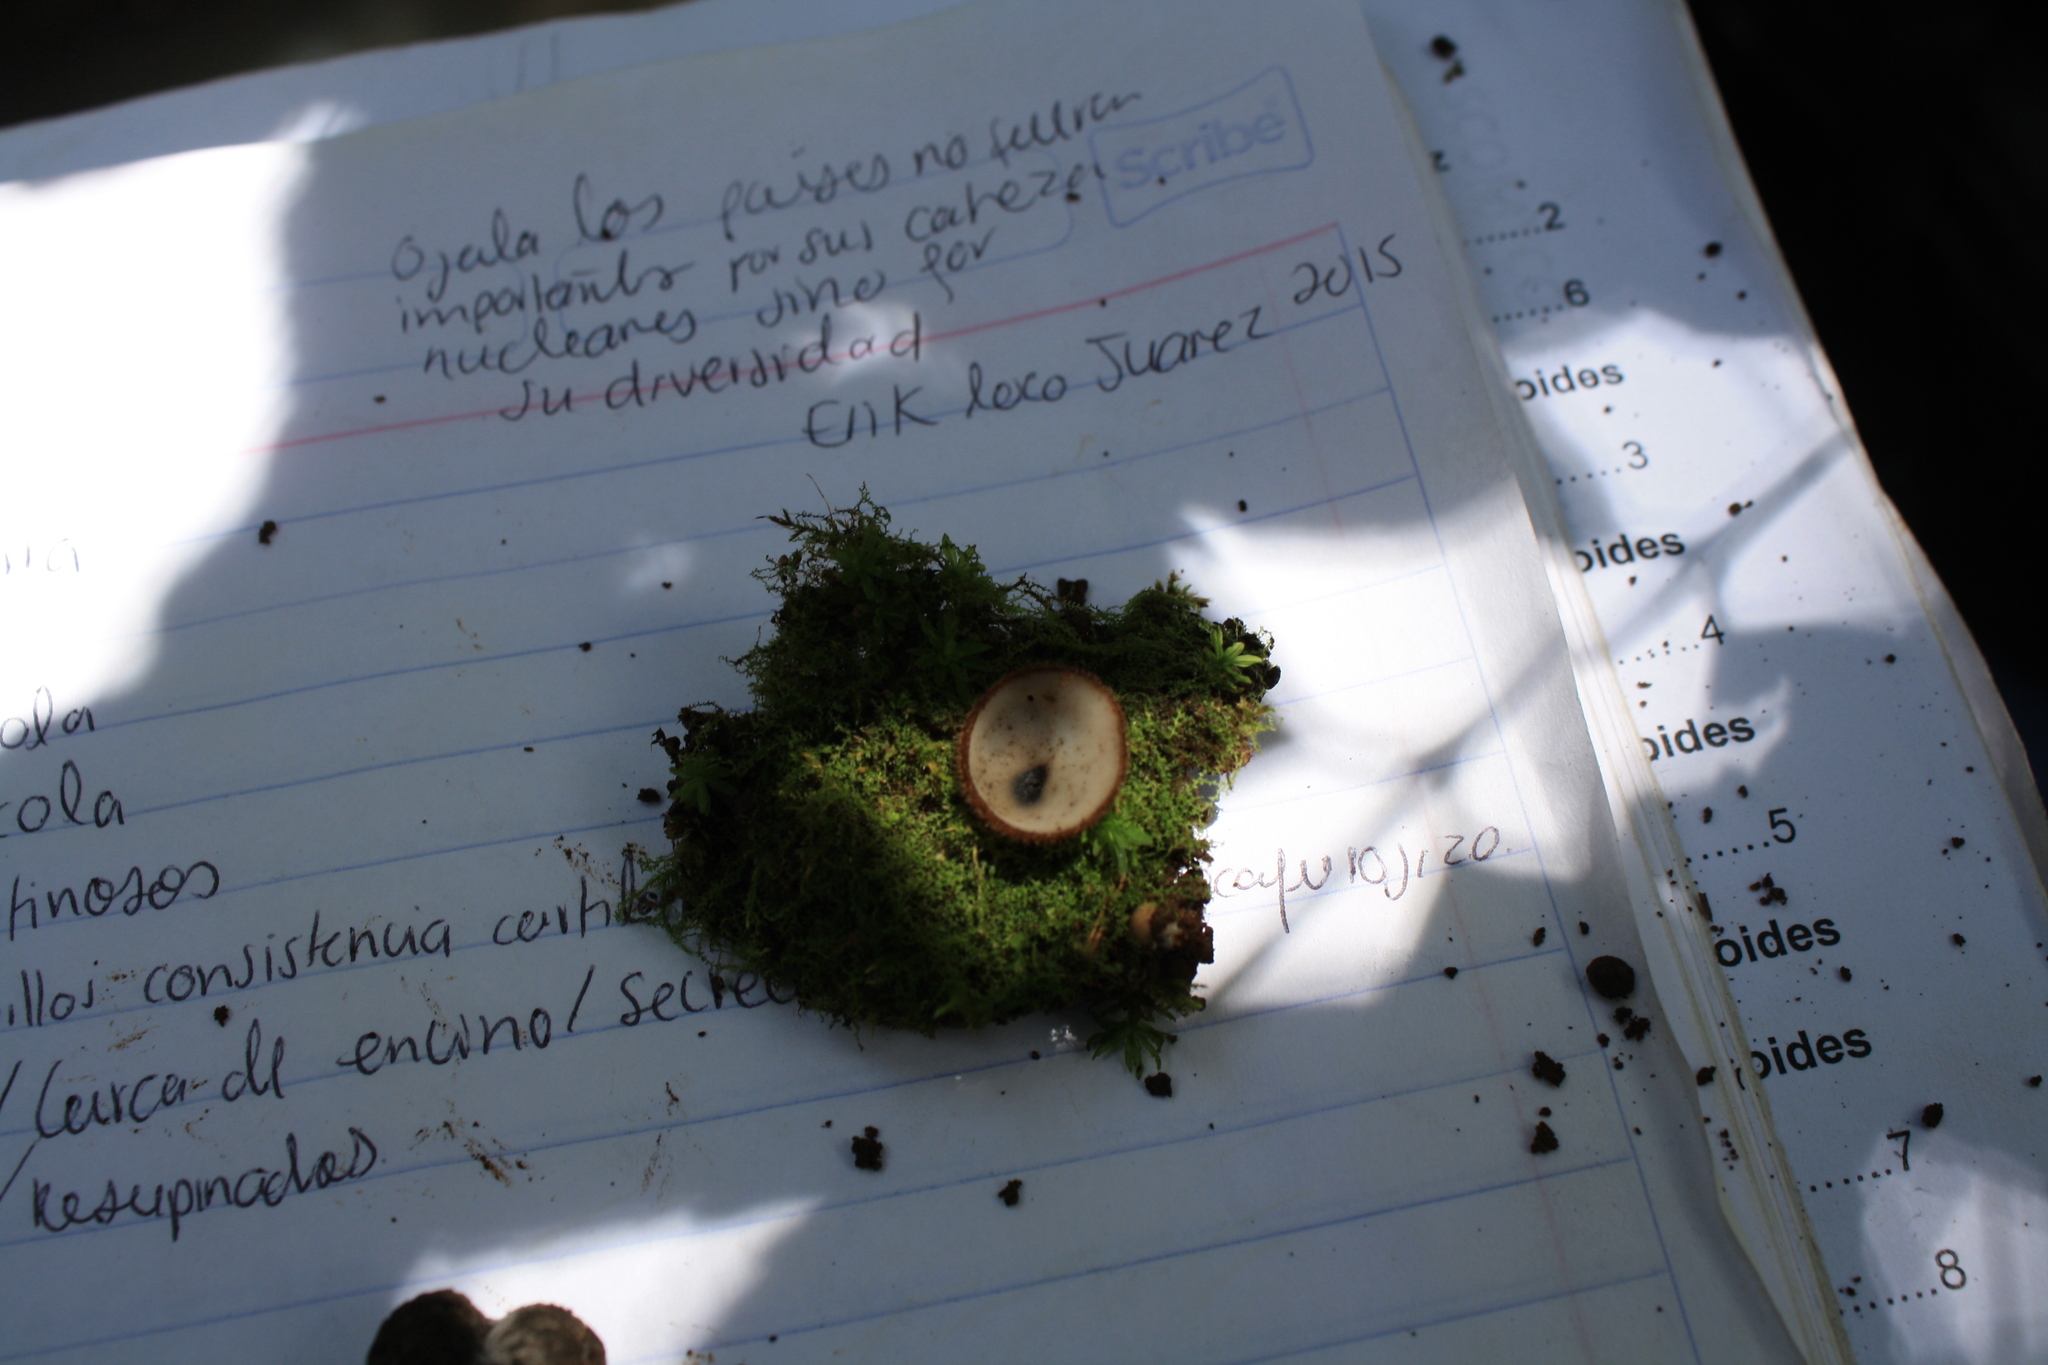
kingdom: Fungi
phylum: Ascomycota
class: Pezizomycetes
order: Pezizales
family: Pyronemataceae
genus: Humaria
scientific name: Humaria hemisphaerica
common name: Glazed cup
